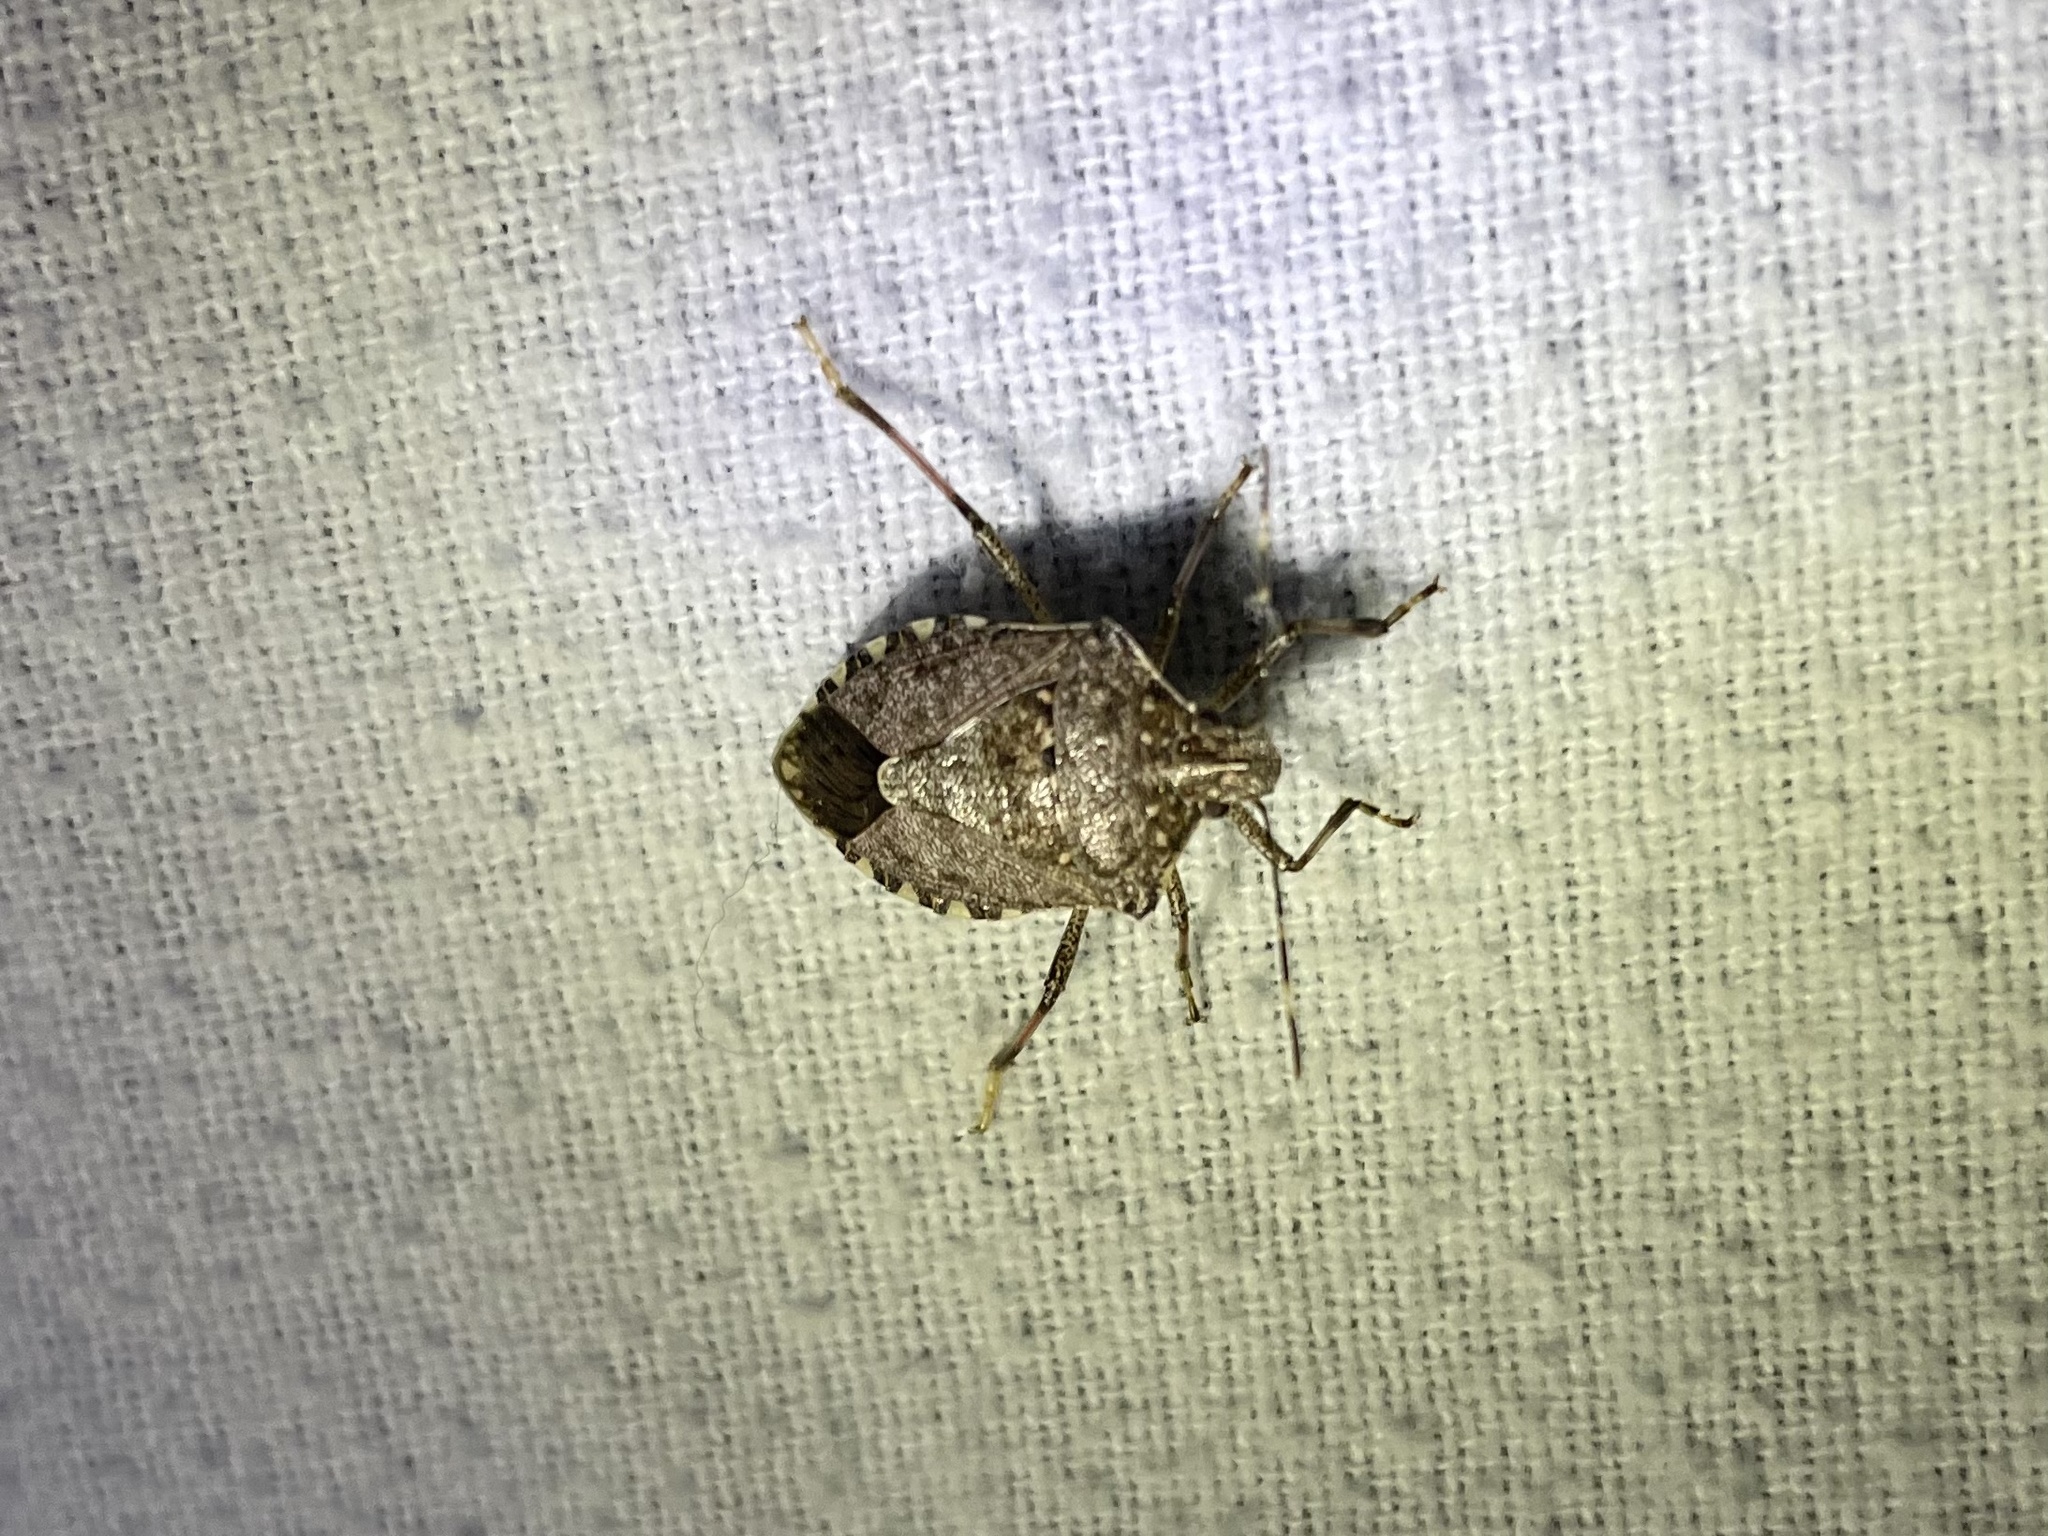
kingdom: Animalia
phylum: Arthropoda
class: Insecta
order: Hemiptera
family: Pentatomidae
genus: Halyomorpha
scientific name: Halyomorpha halys
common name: Brown marmorated stink bug
